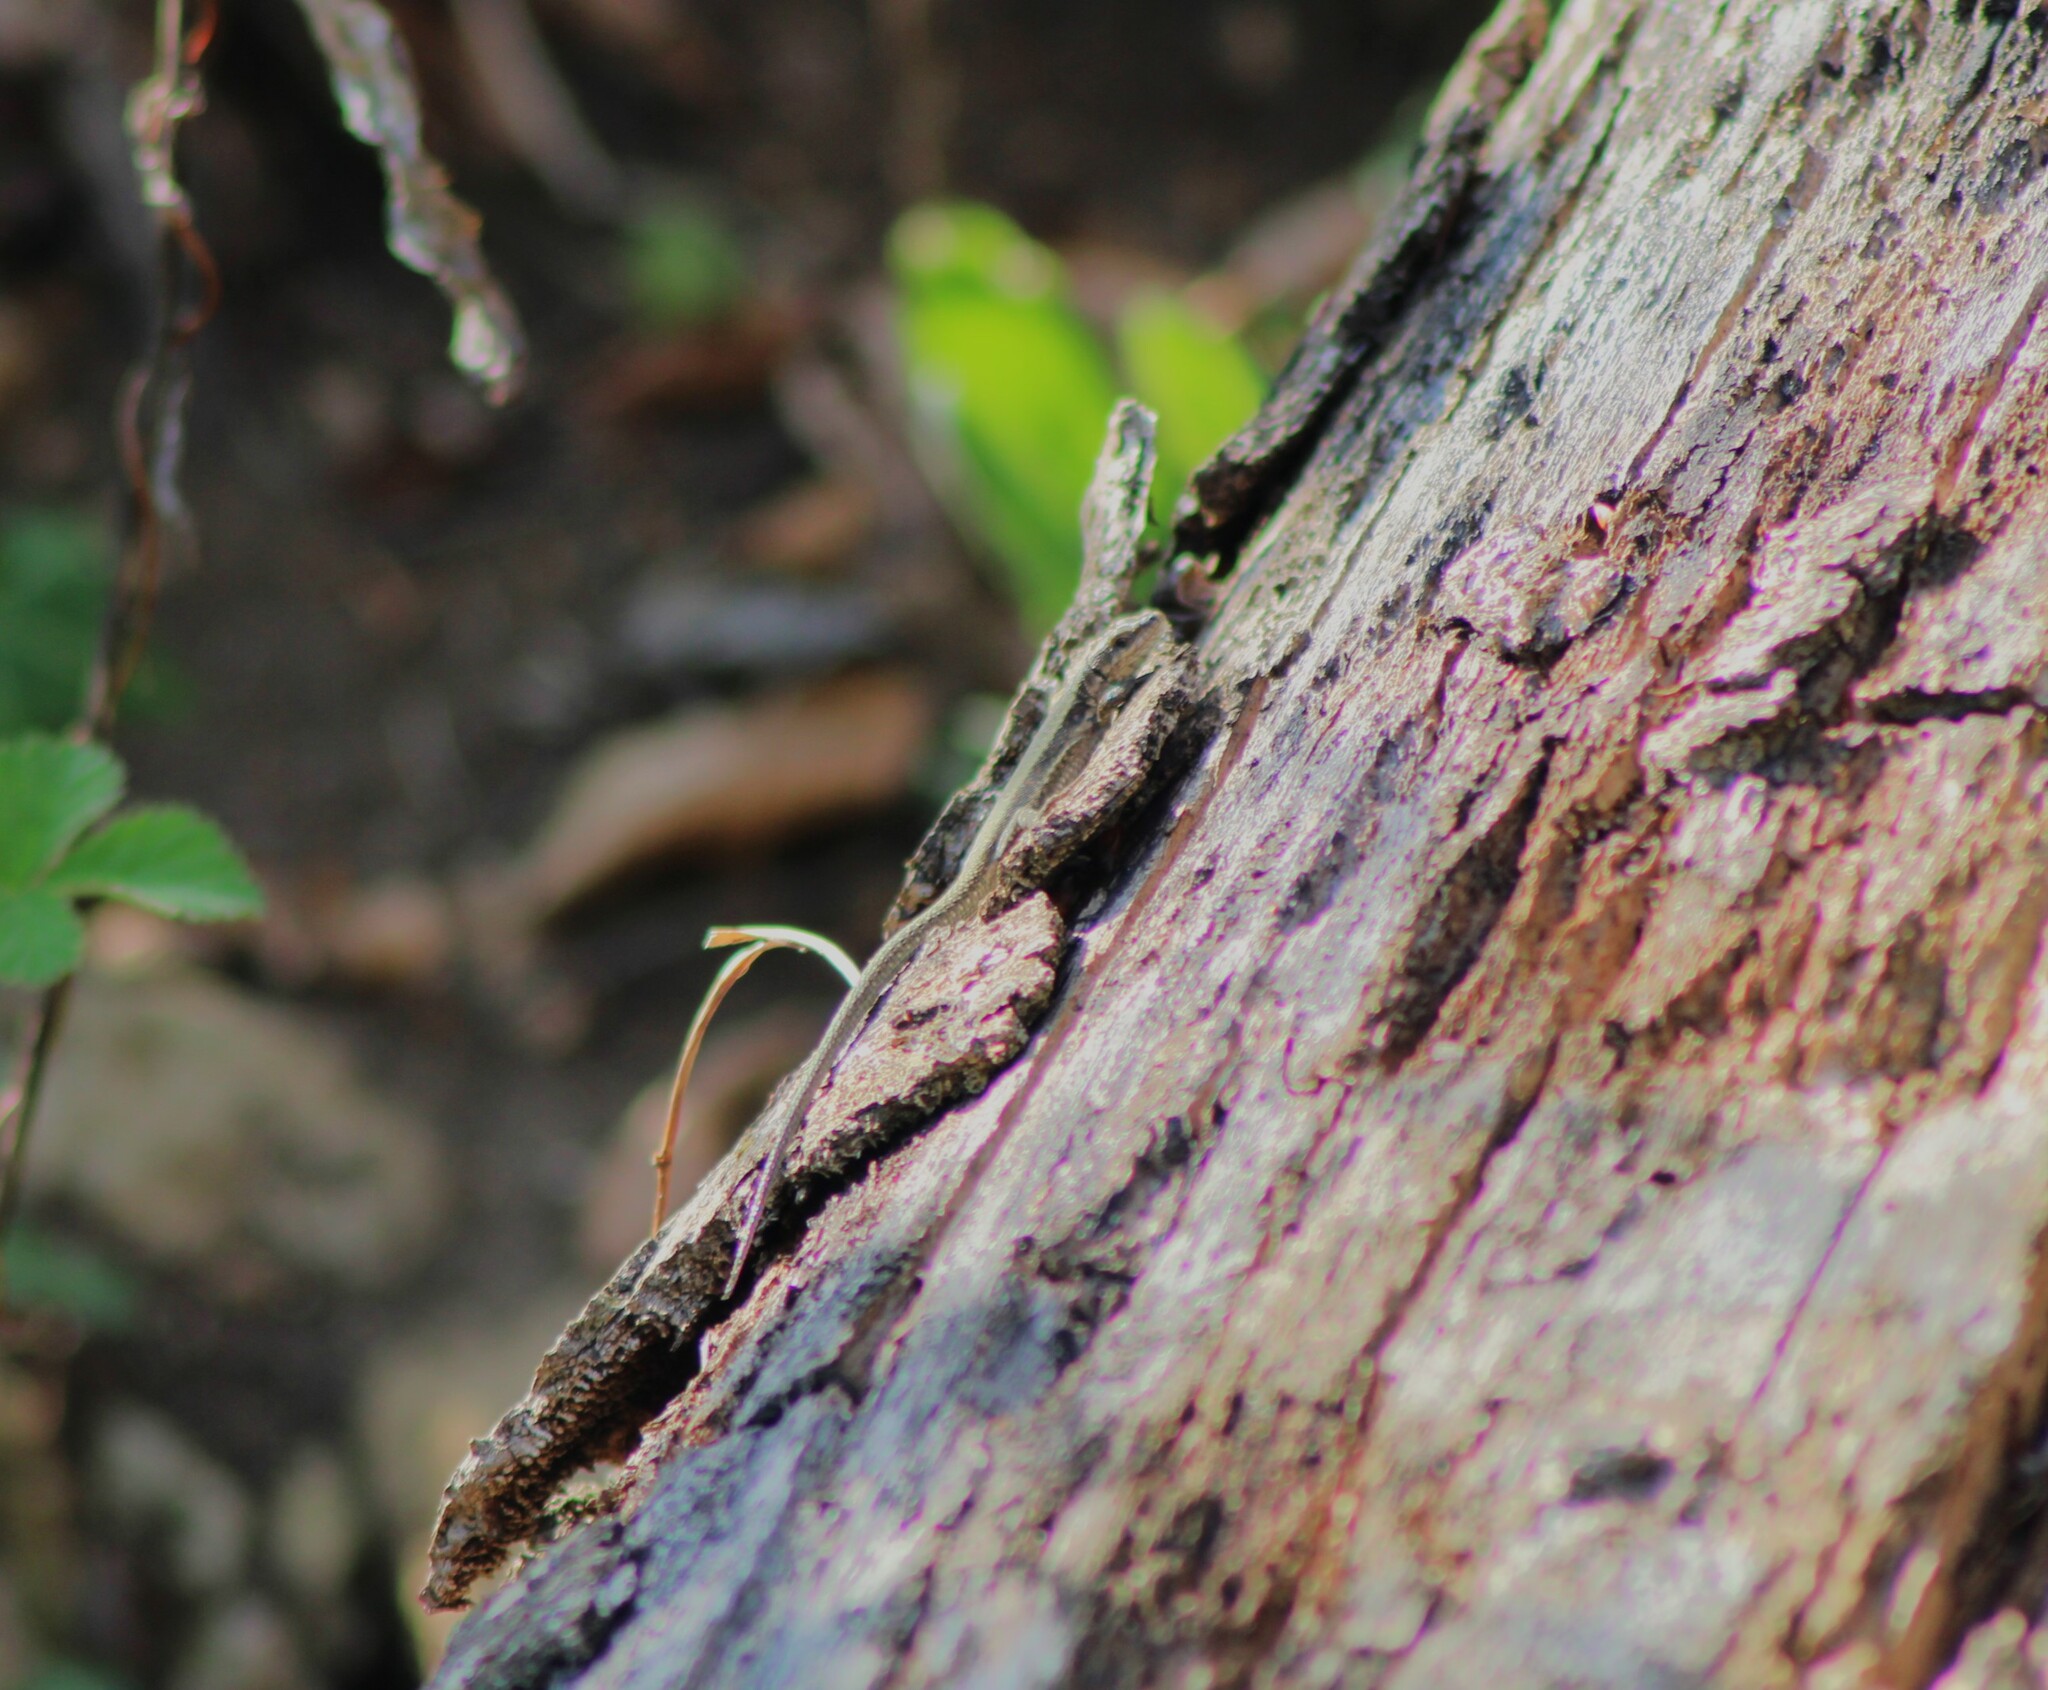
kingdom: Animalia
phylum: Chordata
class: Squamata
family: Lacertidae
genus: Podarcis
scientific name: Podarcis muralis
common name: Common wall lizard
